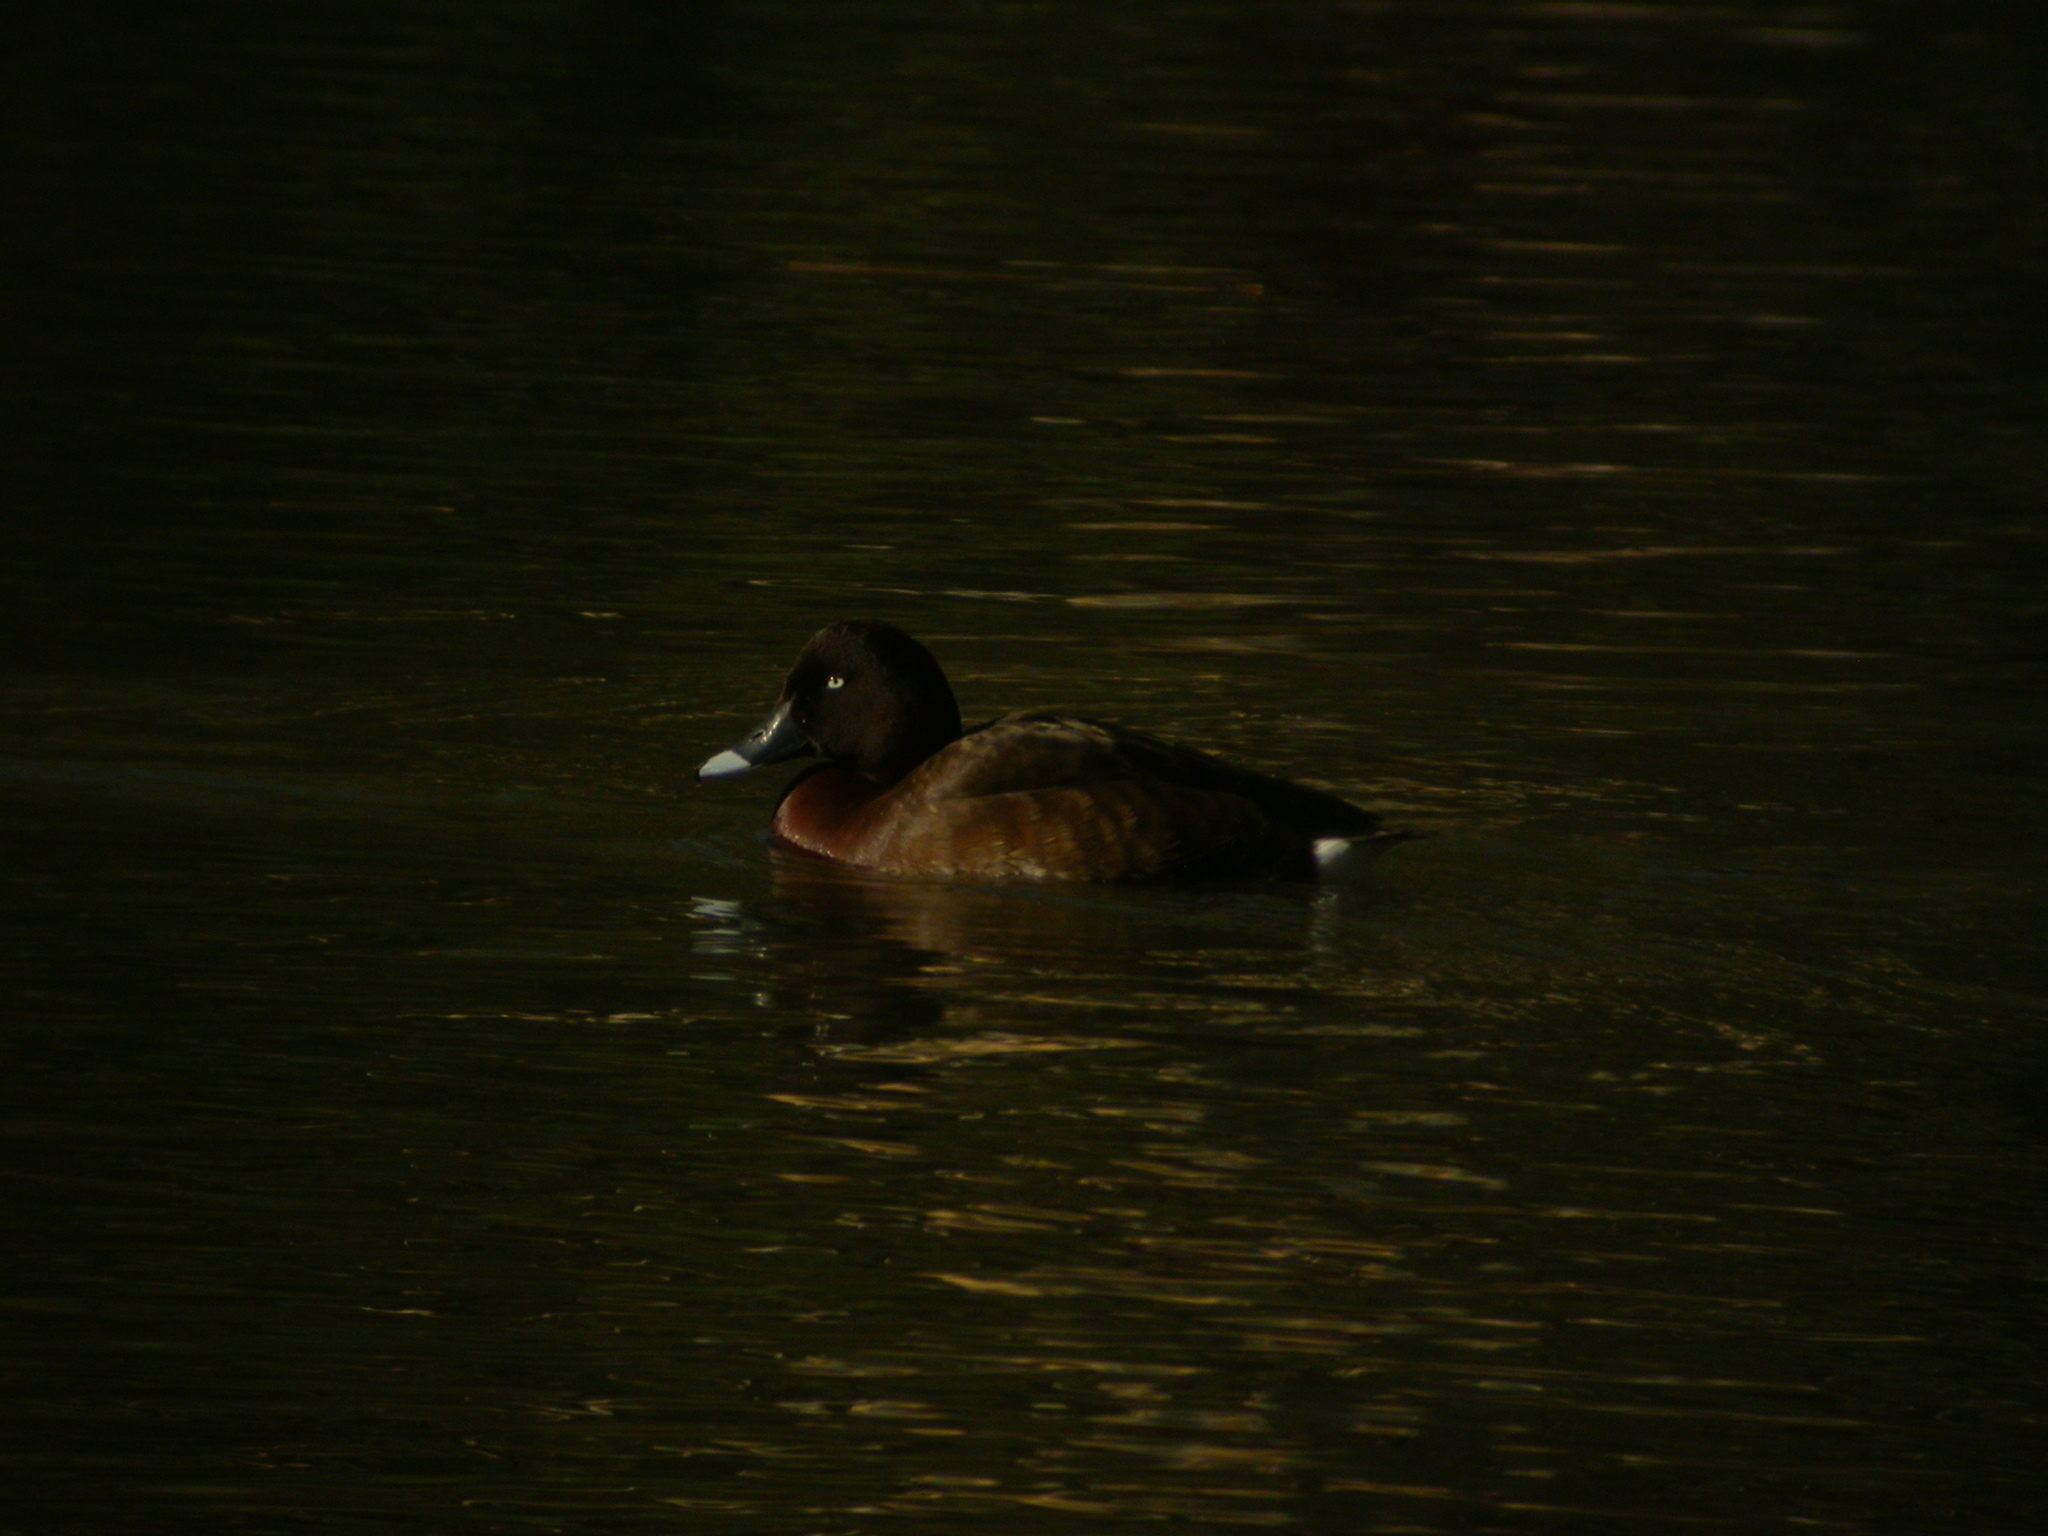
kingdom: Animalia
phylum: Chordata
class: Aves
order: Anseriformes
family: Anatidae
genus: Aythya
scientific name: Aythya australis
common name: Hardhead
